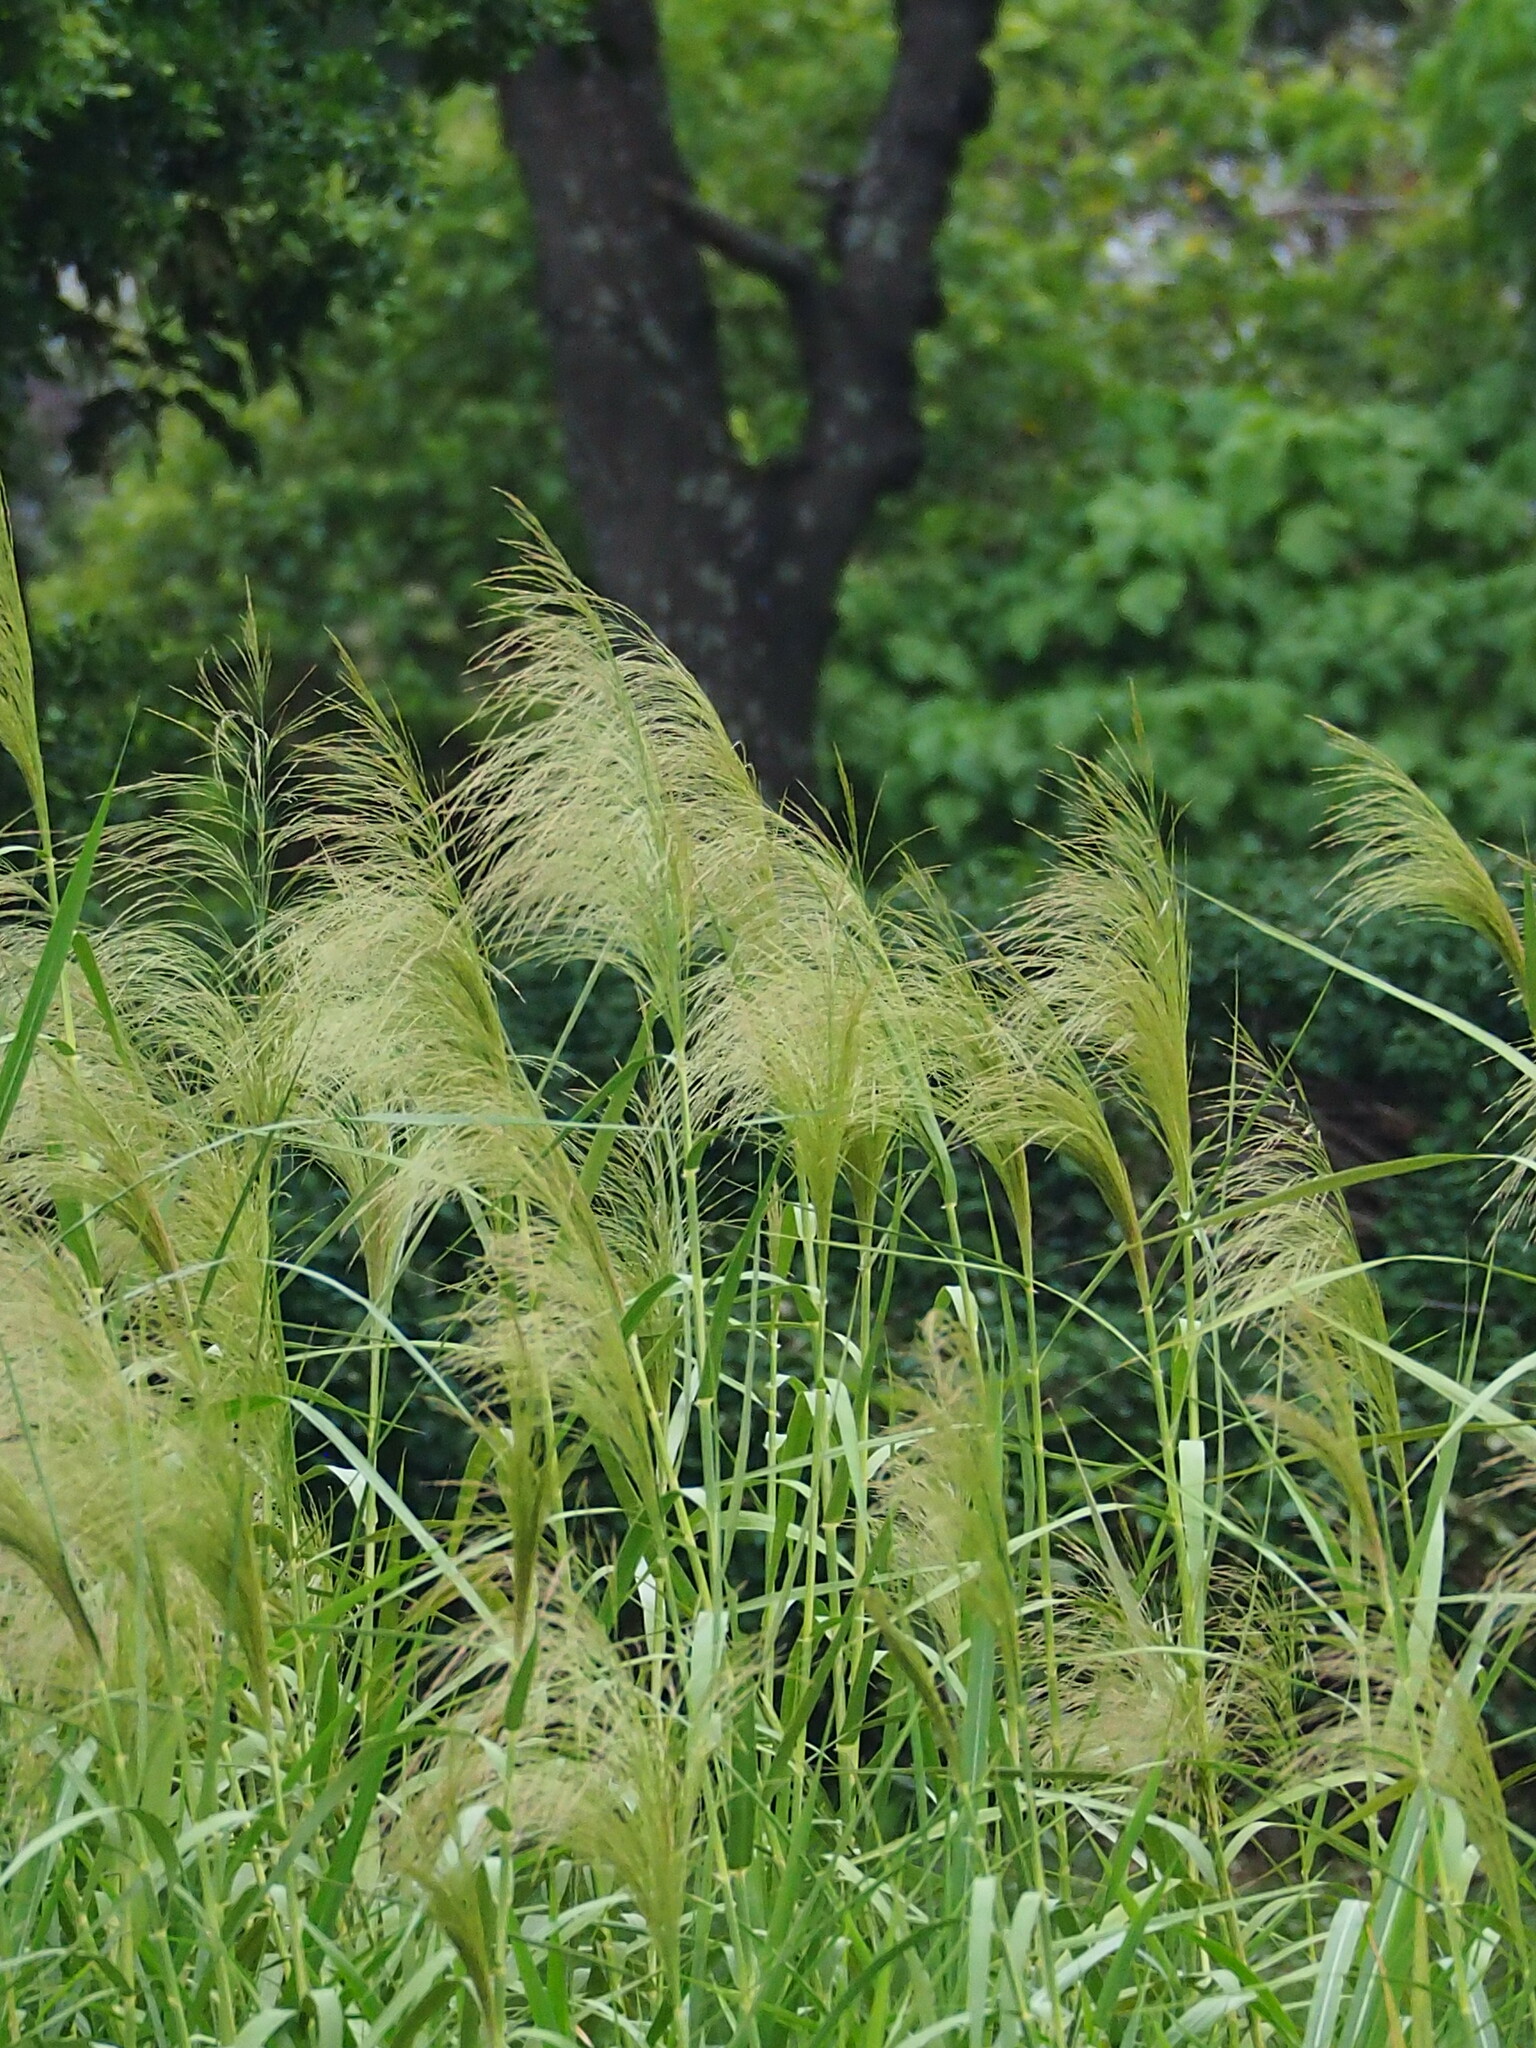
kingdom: Plantae
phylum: Tracheophyta
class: Liliopsida
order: Poales
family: Poaceae
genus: Phragmites
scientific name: Phragmites karka
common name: Tropical reed
